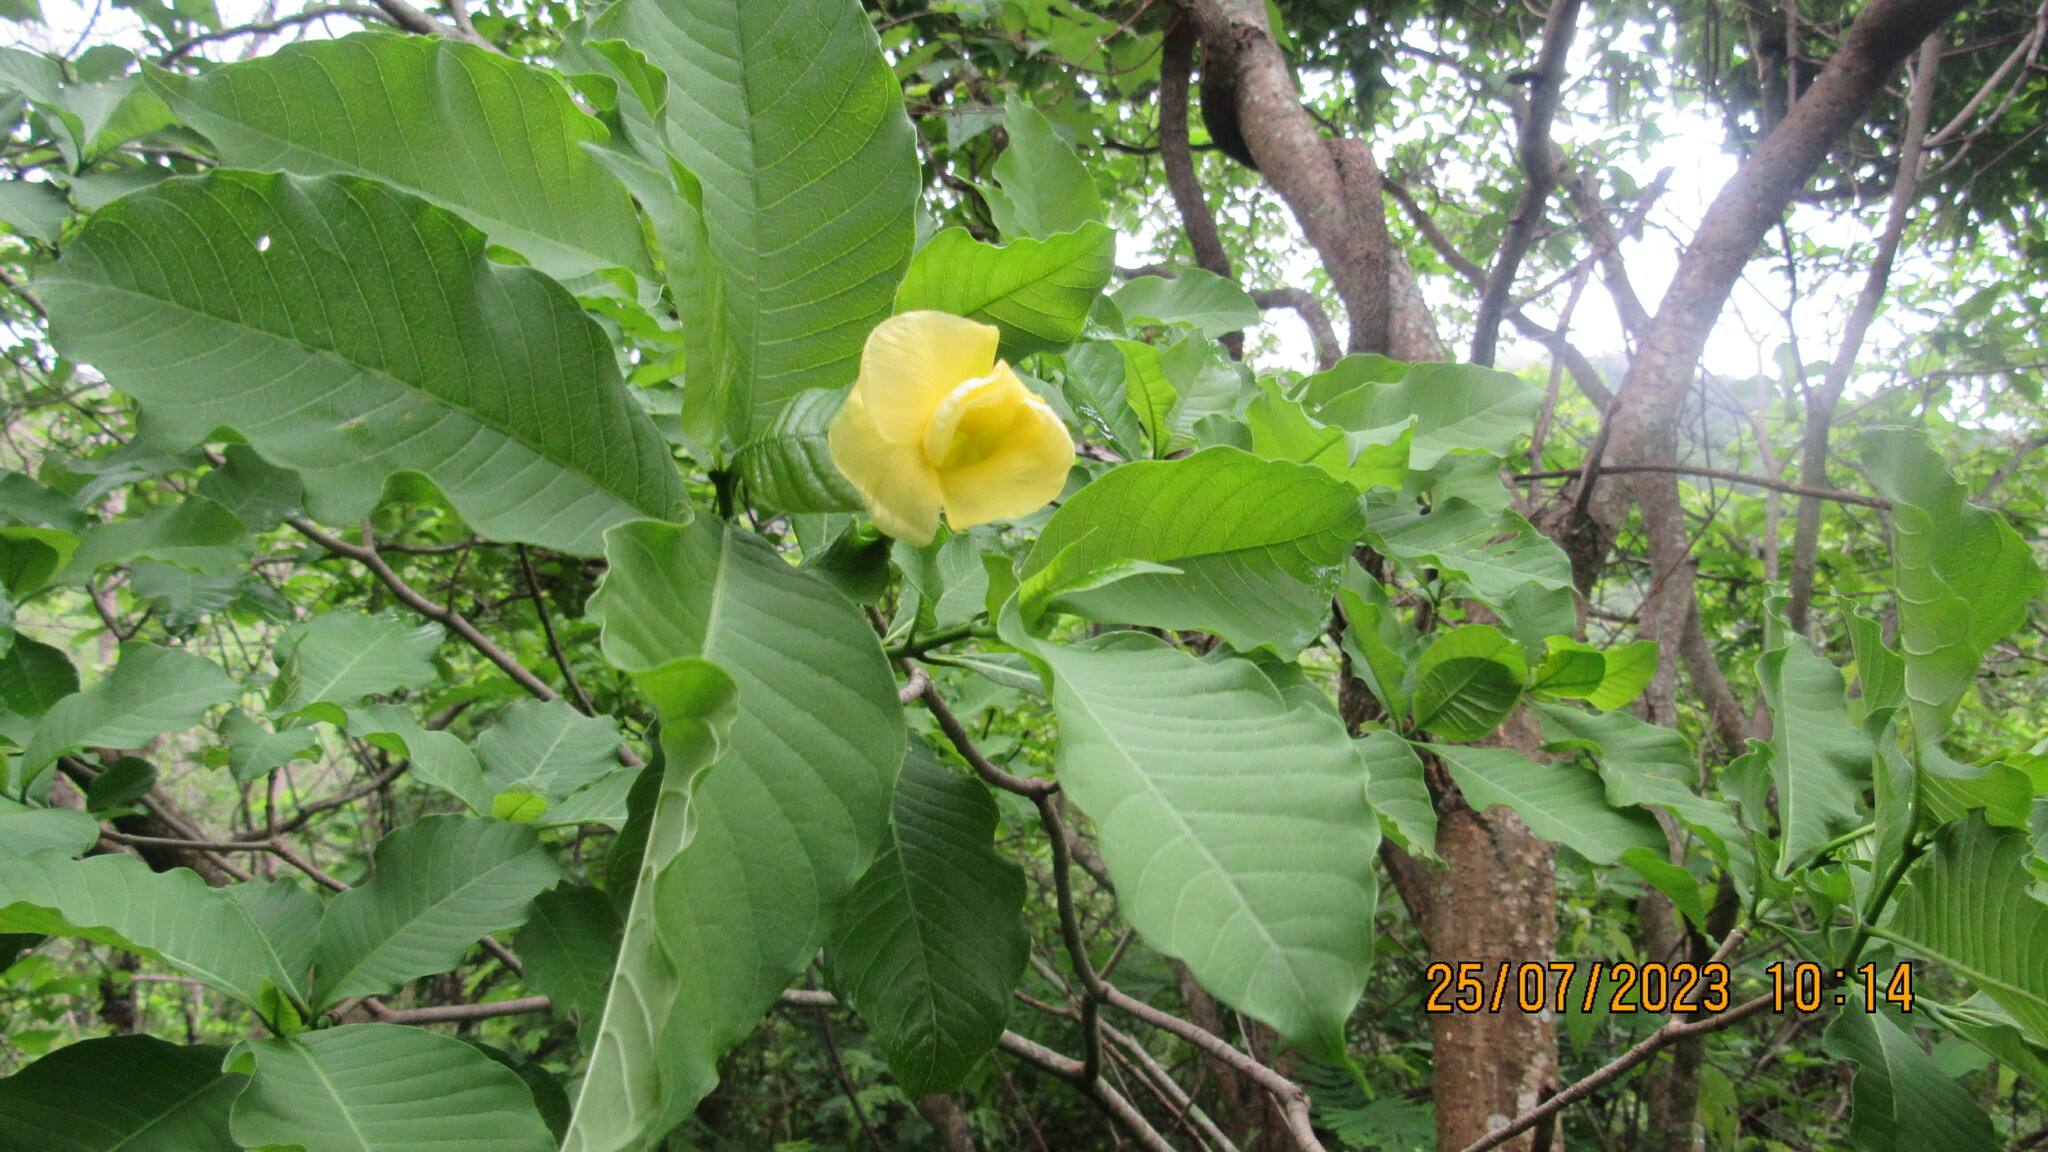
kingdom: Plantae
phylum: Tracheophyta
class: Magnoliopsida
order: Gentianales
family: Apocynaceae
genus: Tabernaemontana
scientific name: Tabernaemontana tomentosa
